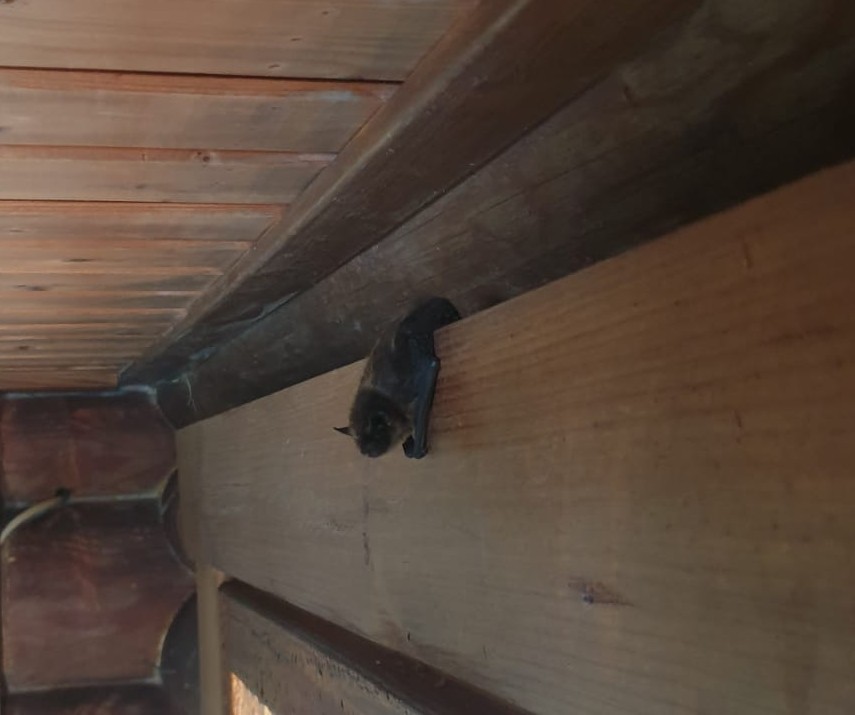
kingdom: Animalia
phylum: Chordata
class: Mammalia
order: Chiroptera
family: Vespertilionidae
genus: Eptesicus
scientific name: Eptesicus nilssonii
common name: Northern bat
